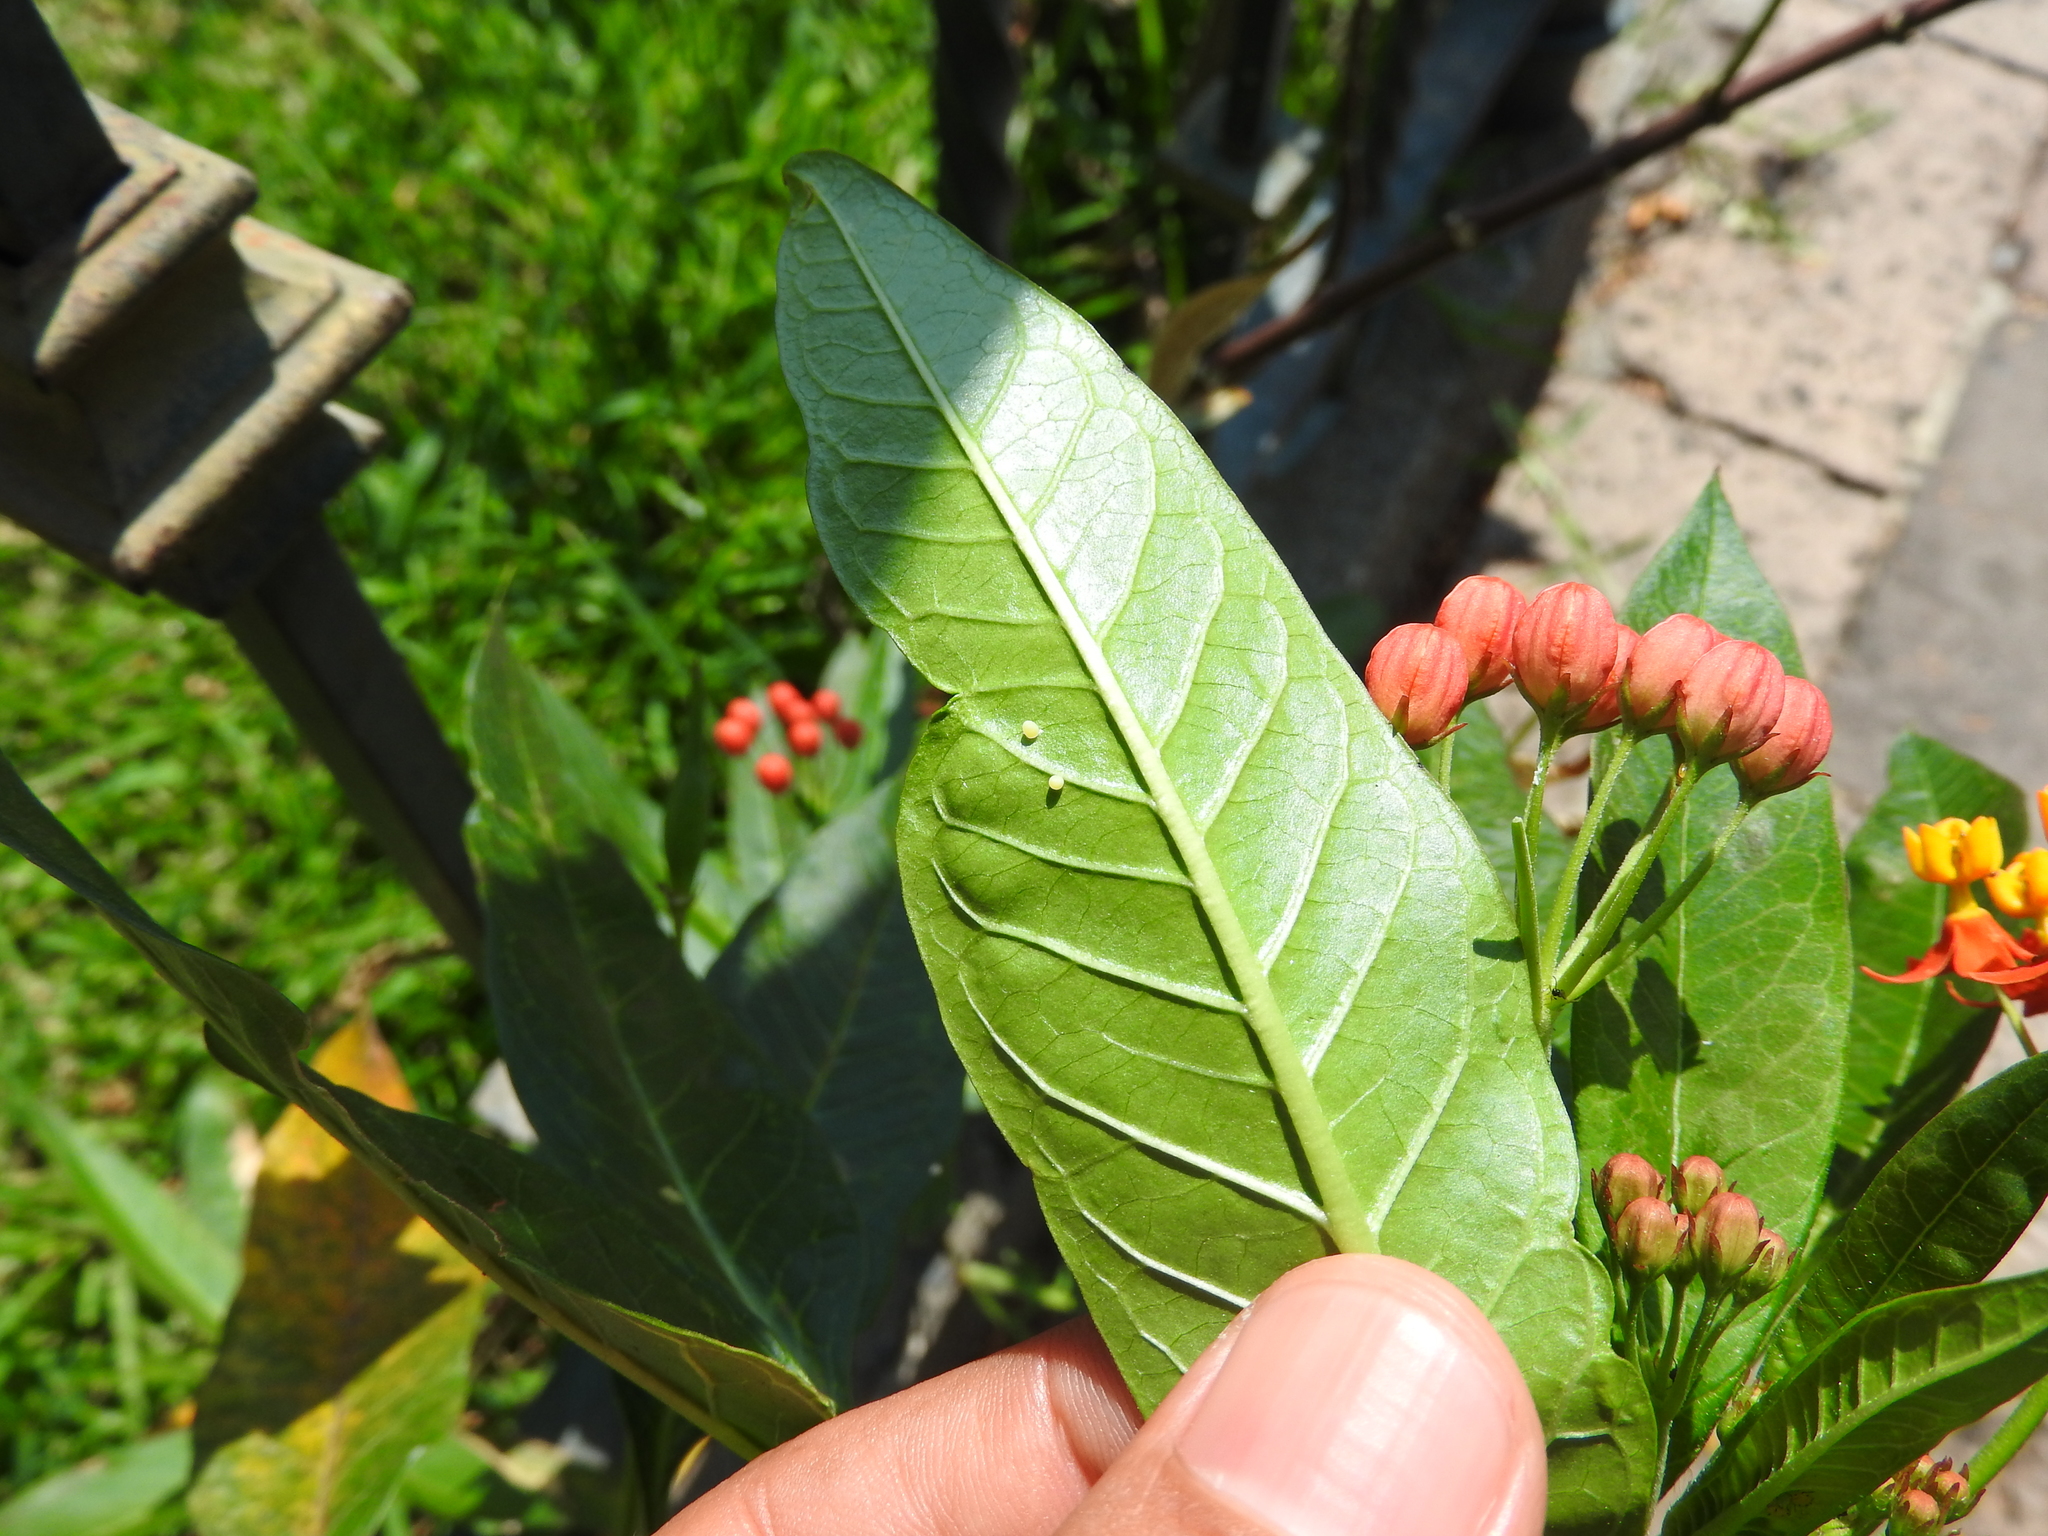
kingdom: Animalia
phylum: Arthropoda
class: Insecta
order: Lepidoptera
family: Nymphalidae
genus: Danaus
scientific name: Danaus plexippus
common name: Monarch
